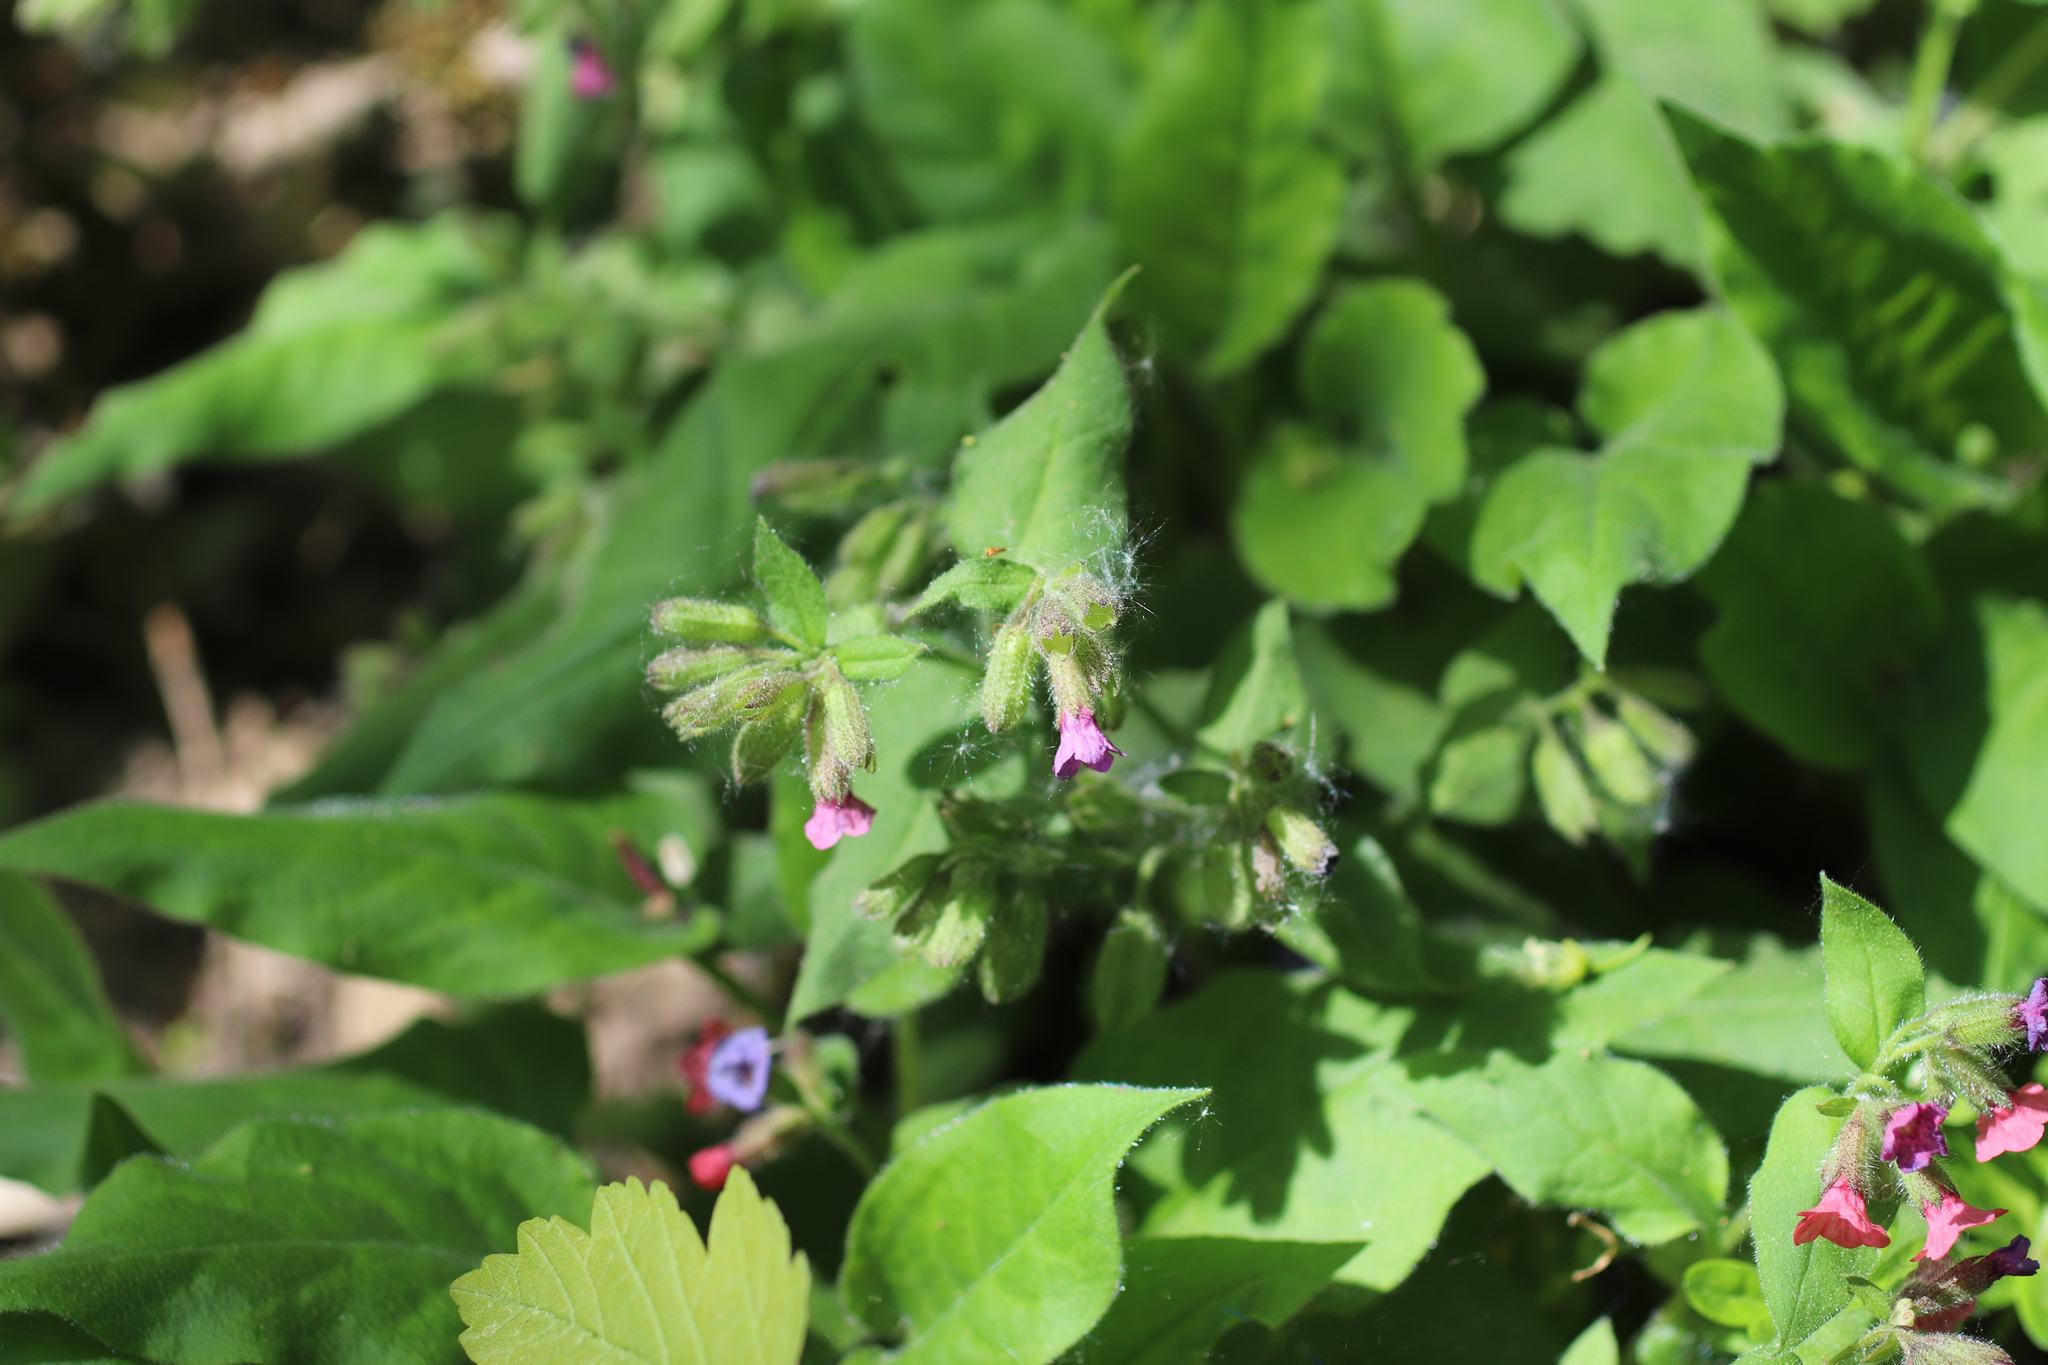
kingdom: Plantae
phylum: Tracheophyta
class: Magnoliopsida
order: Boraginales
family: Boraginaceae
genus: Pulmonaria
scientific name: Pulmonaria obscura
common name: Suffolk lungwort
